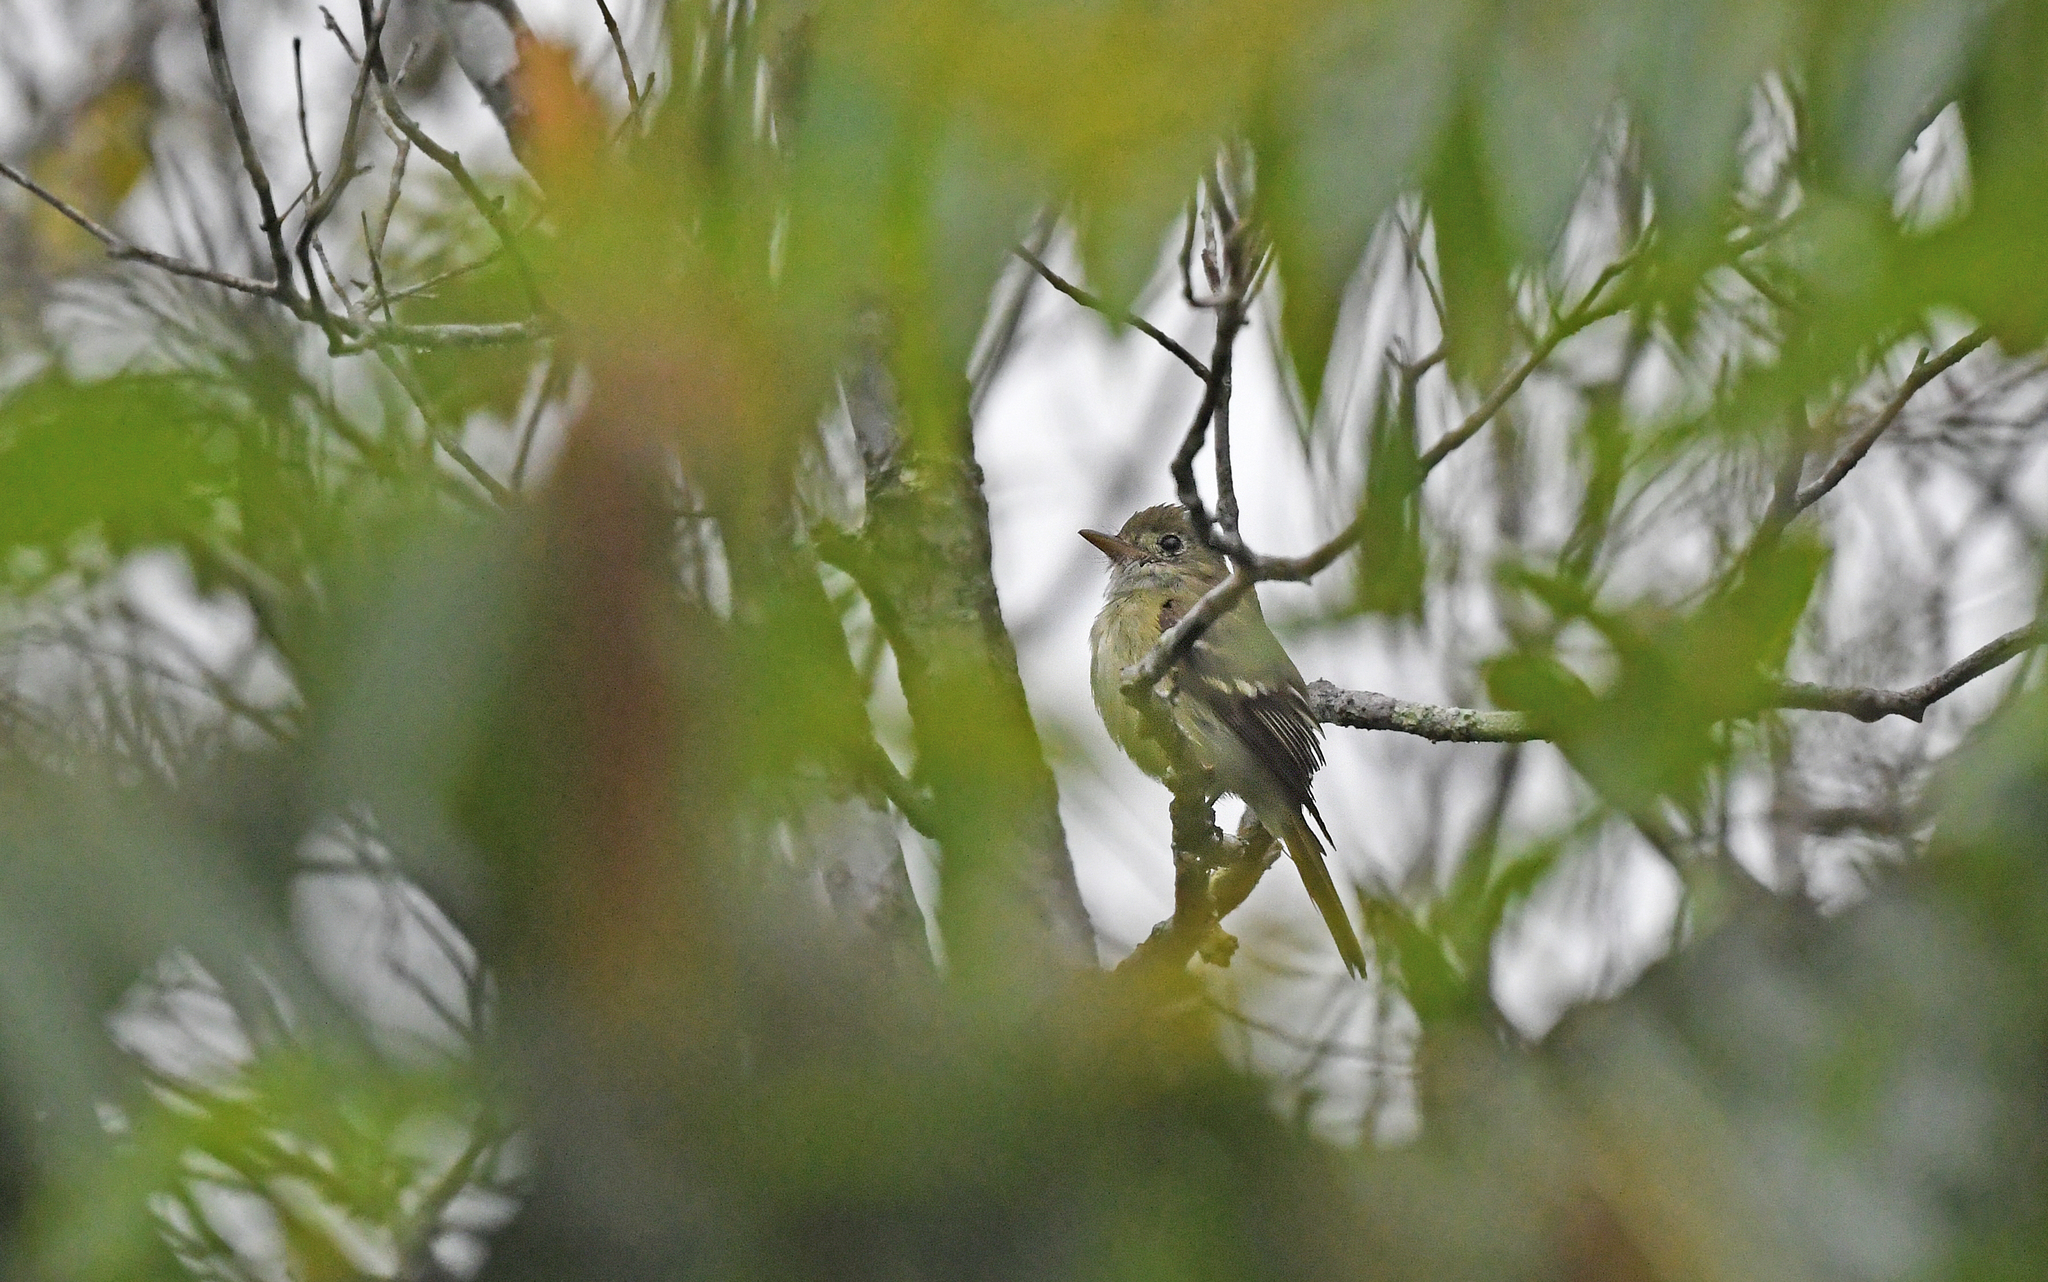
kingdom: Animalia
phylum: Chordata
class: Aves
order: Passeriformes
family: Tyrannidae
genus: Tolmomyias
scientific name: Tolmomyias sulphurescens
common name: Yellow-olive flycatcher
